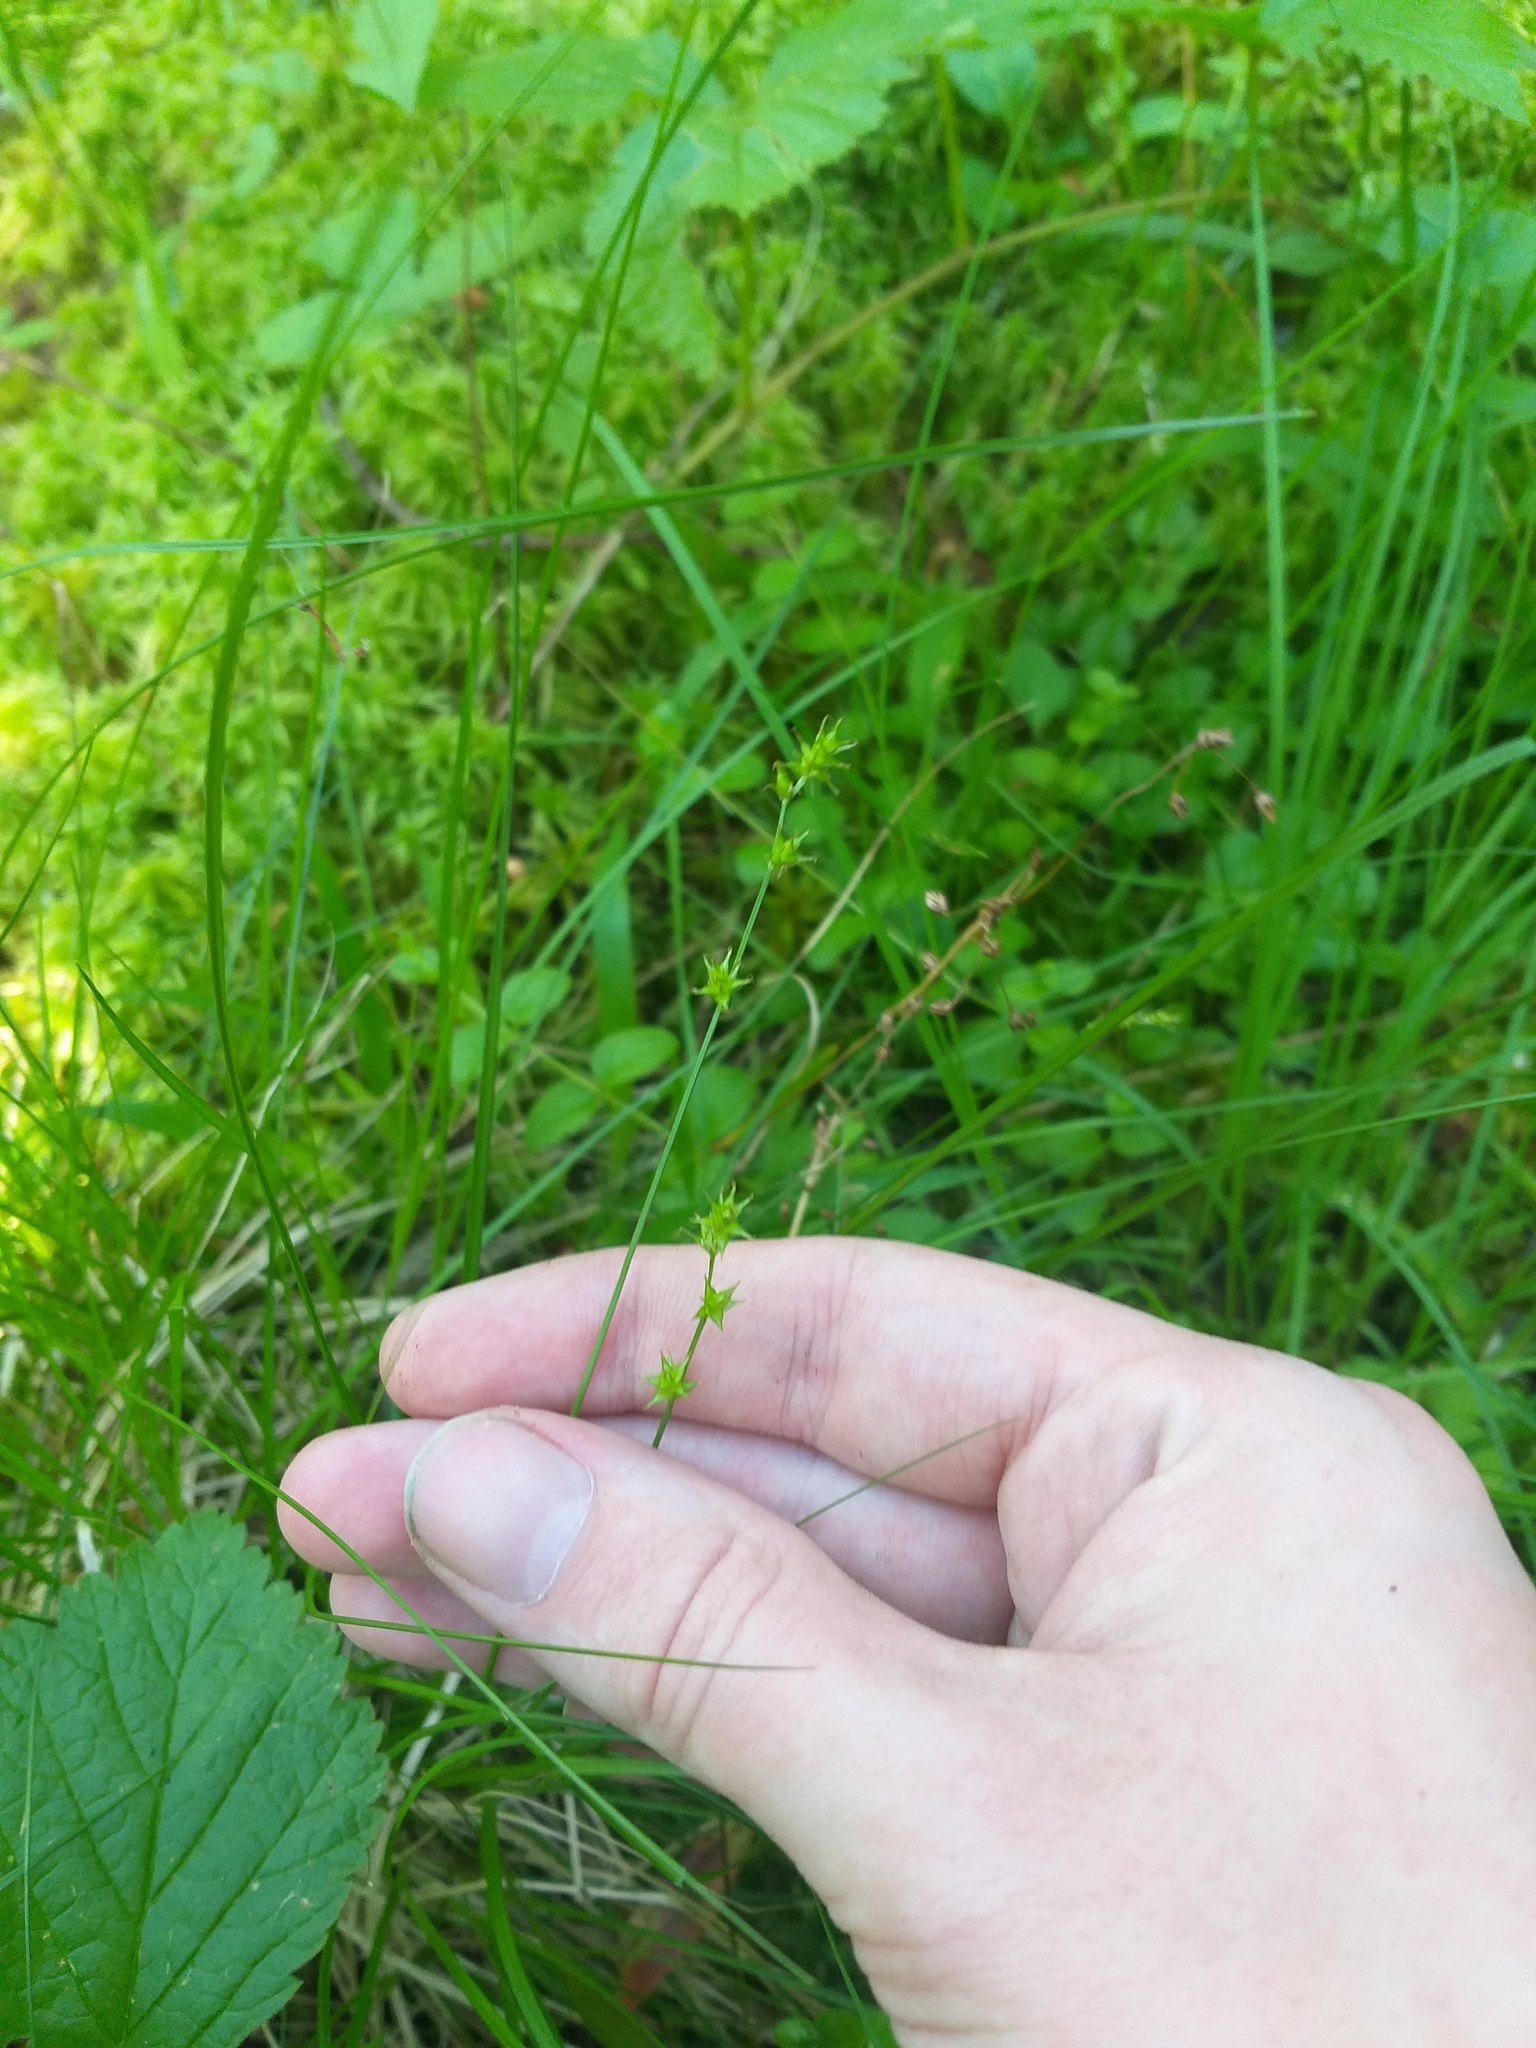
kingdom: Plantae
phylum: Tracheophyta
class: Liliopsida
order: Poales
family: Cyperaceae
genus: Carex
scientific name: Carex echinata
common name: Star sedge
